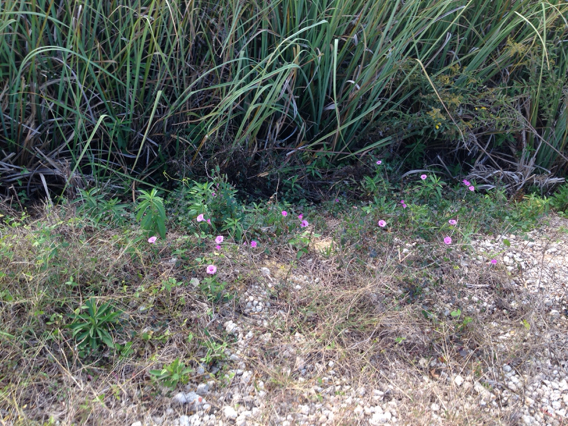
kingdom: Plantae
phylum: Tracheophyta
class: Magnoliopsida
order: Solanales
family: Convolvulaceae
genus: Ipomoea
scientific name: Ipomoea sagittata
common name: Saltmarsh morning glory
